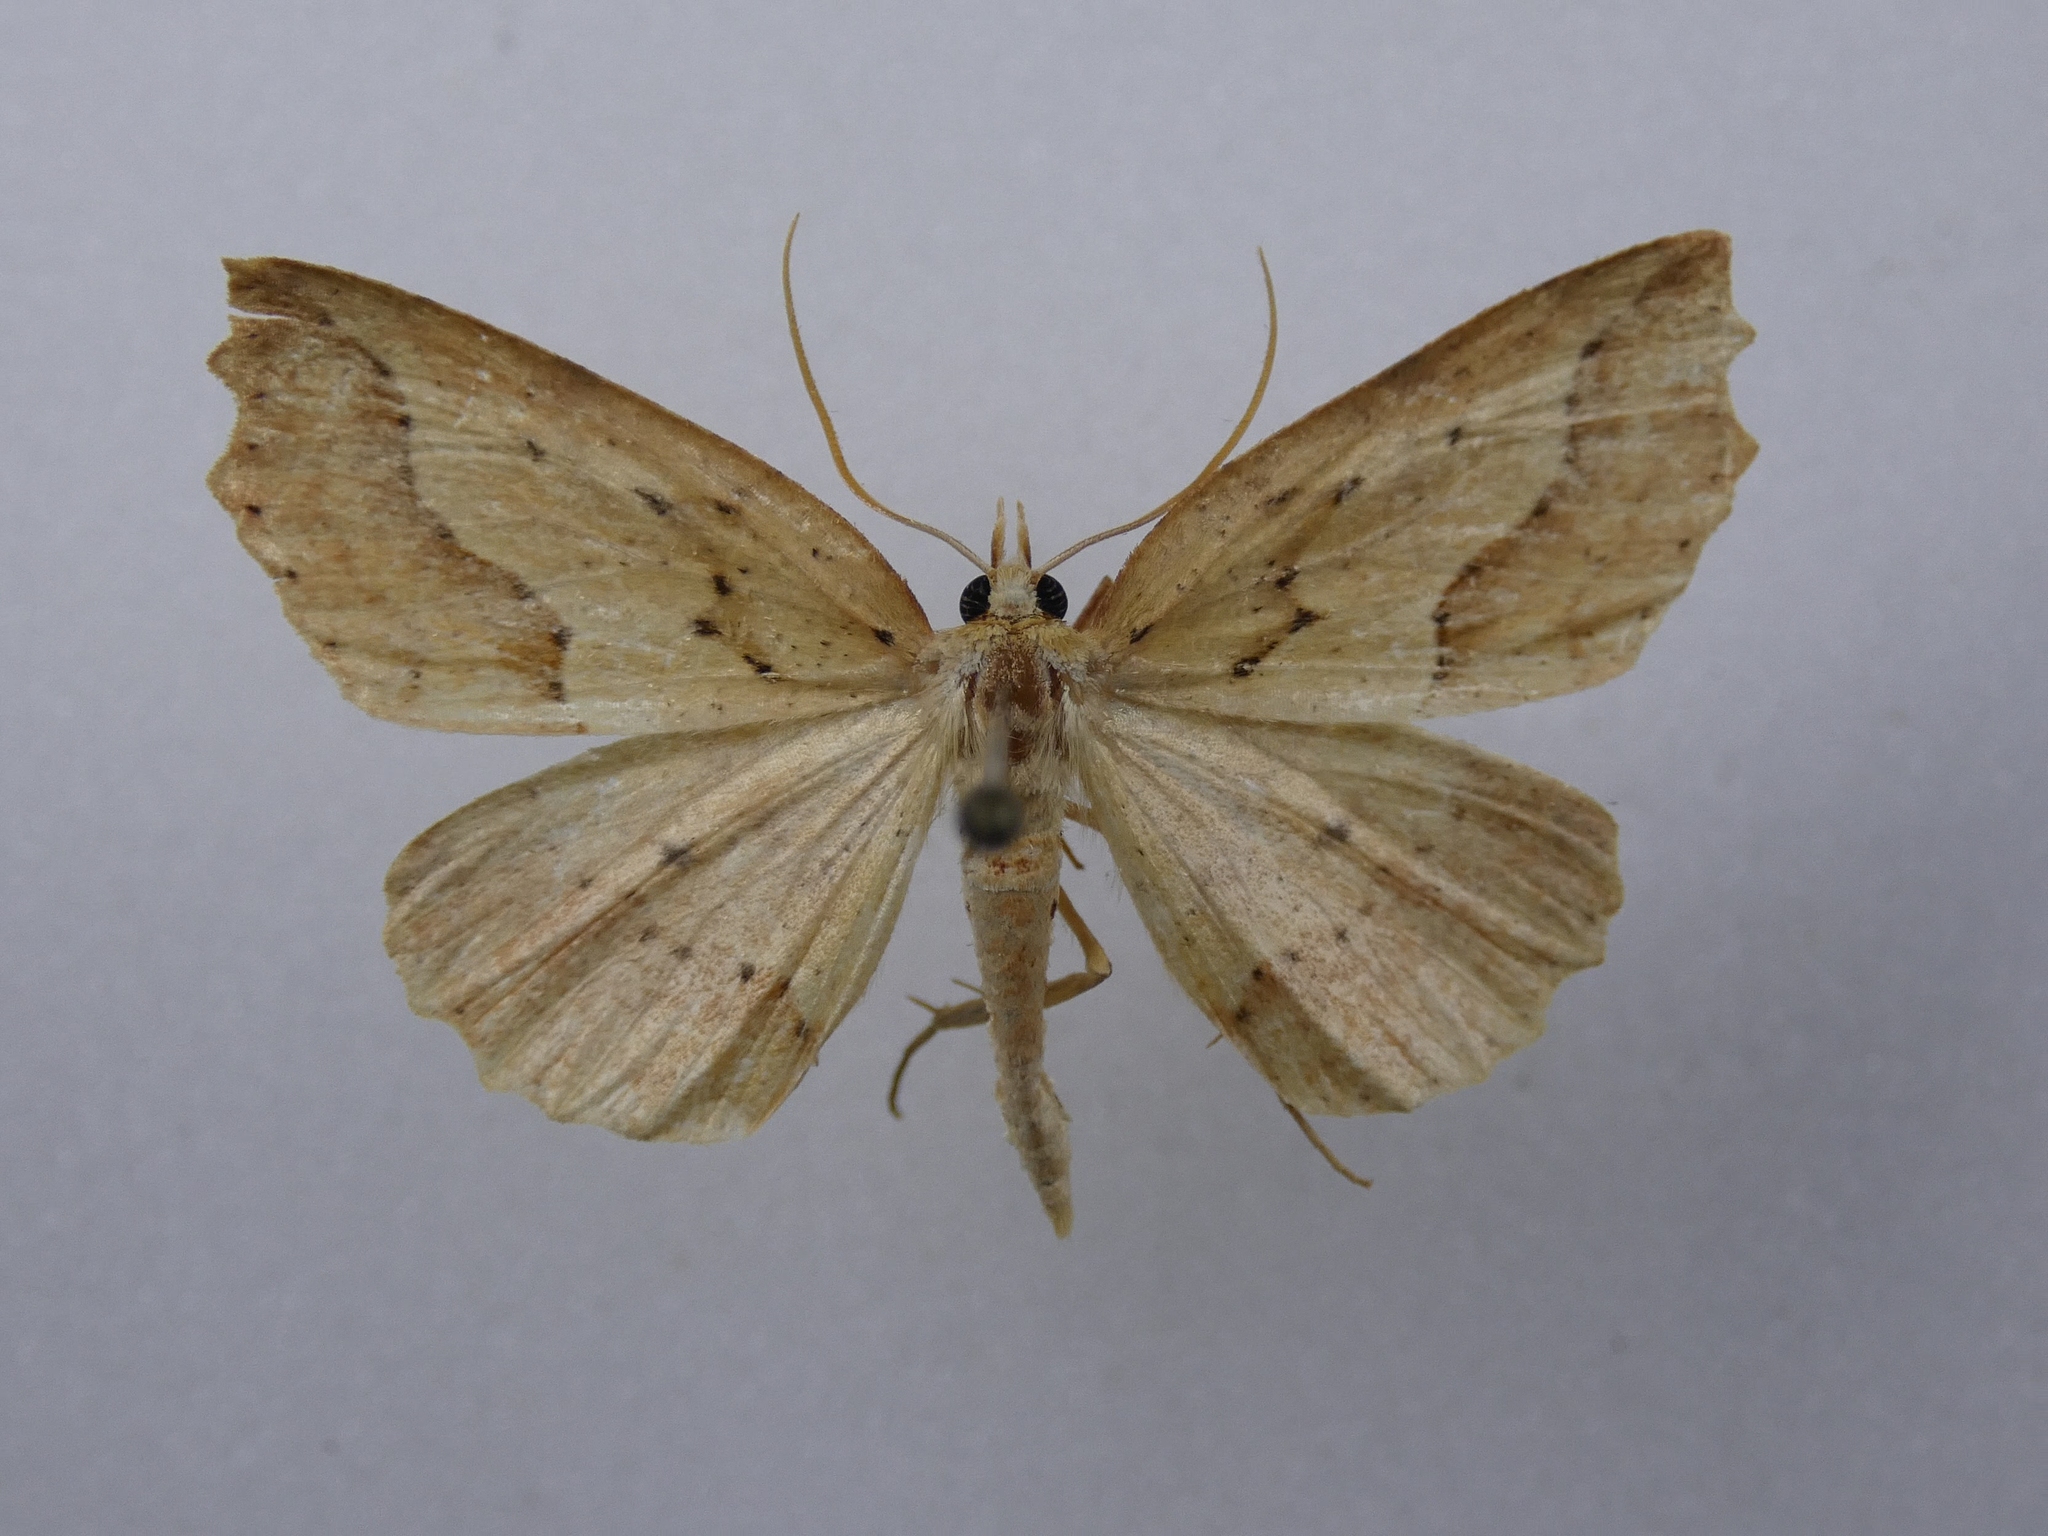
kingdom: Animalia
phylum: Arthropoda
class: Insecta
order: Lepidoptera
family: Geometridae
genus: Ischalis
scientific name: Ischalis variabilis
